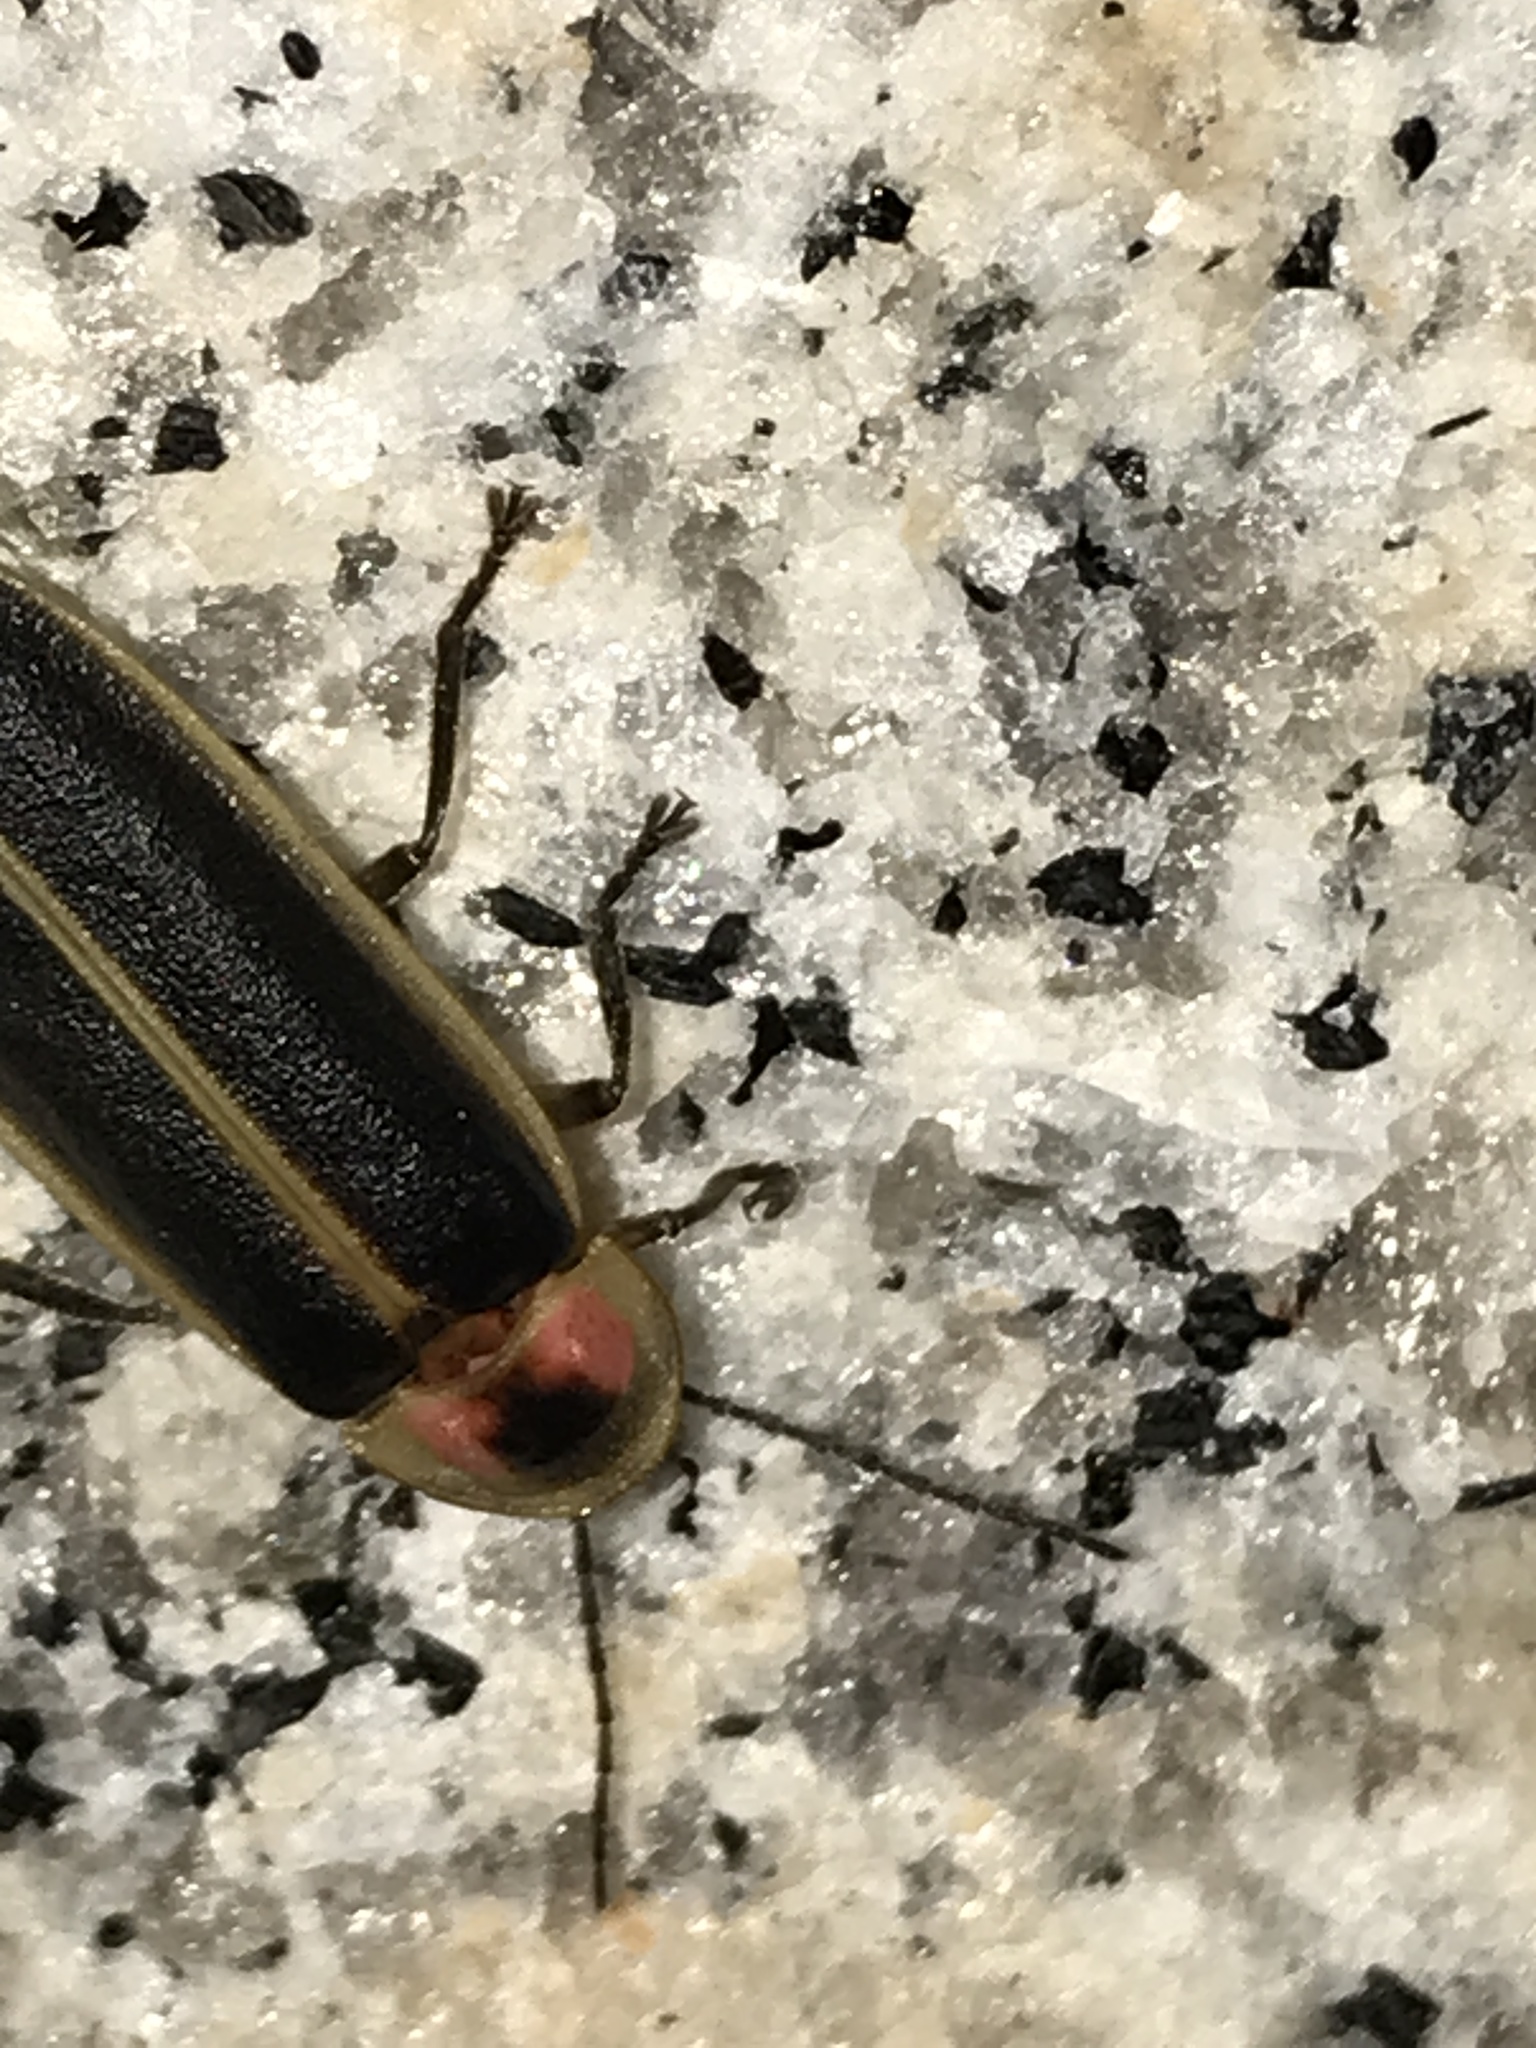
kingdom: Animalia
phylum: Arthropoda
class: Insecta
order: Coleoptera
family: Lampyridae
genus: Photinus
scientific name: Photinus pyralis
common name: Big dipper firefly
